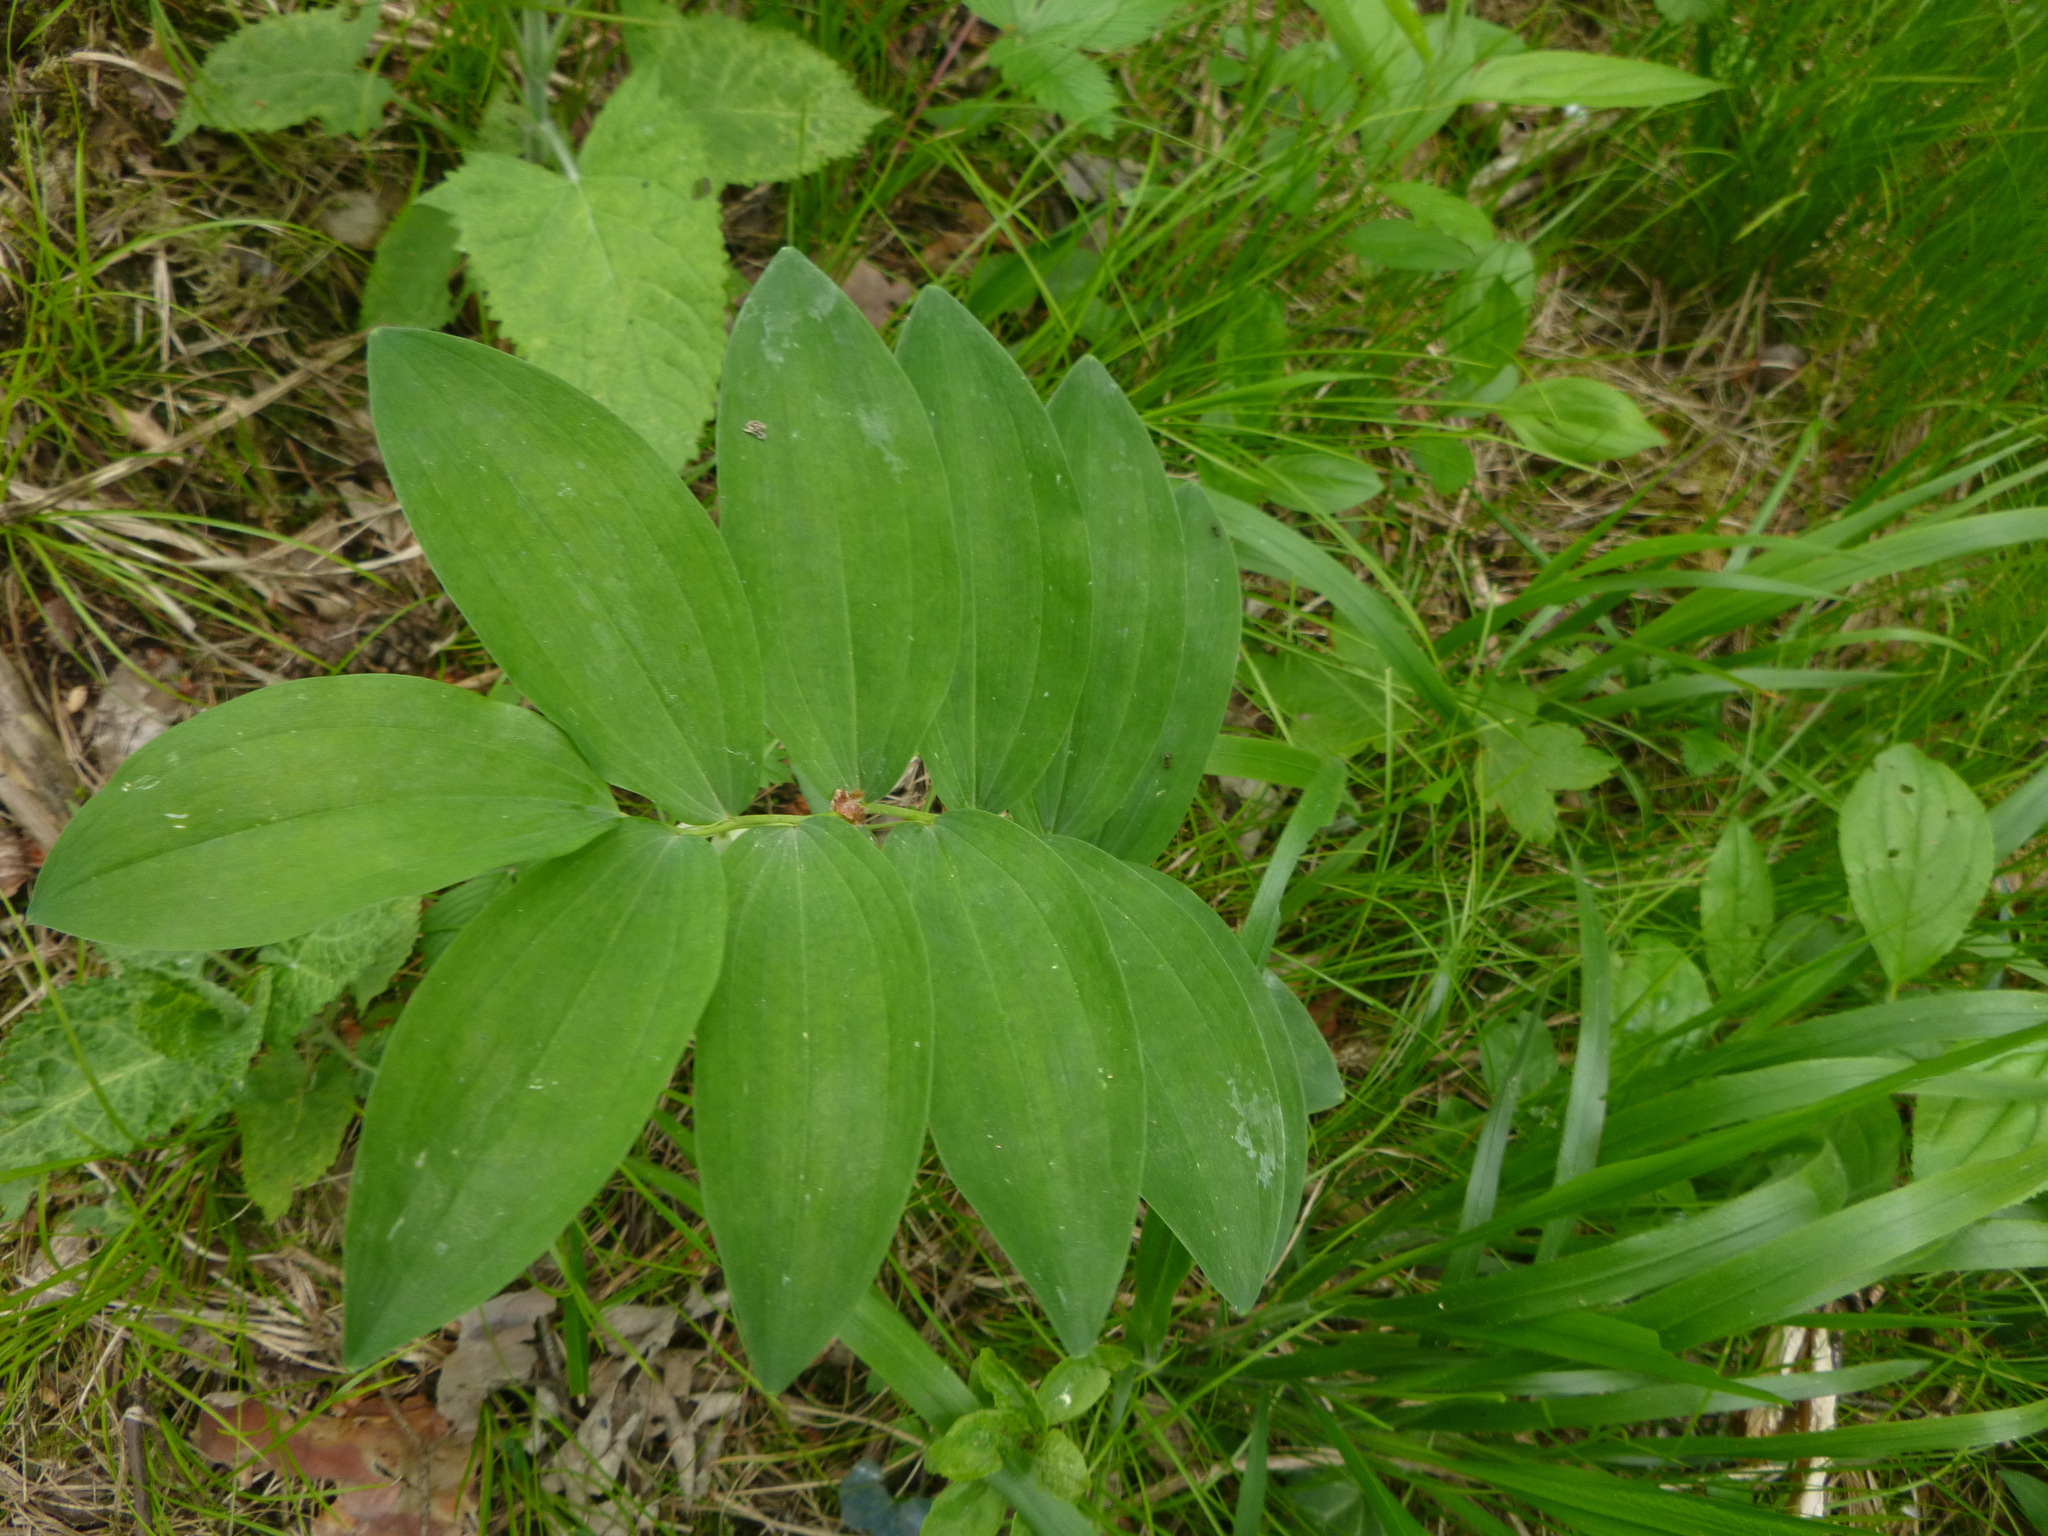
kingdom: Plantae
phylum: Tracheophyta
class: Liliopsida
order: Asparagales
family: Asparagaceae
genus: Polygonatum
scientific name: Polygonatum multiflorum
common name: Solomon's-seal
